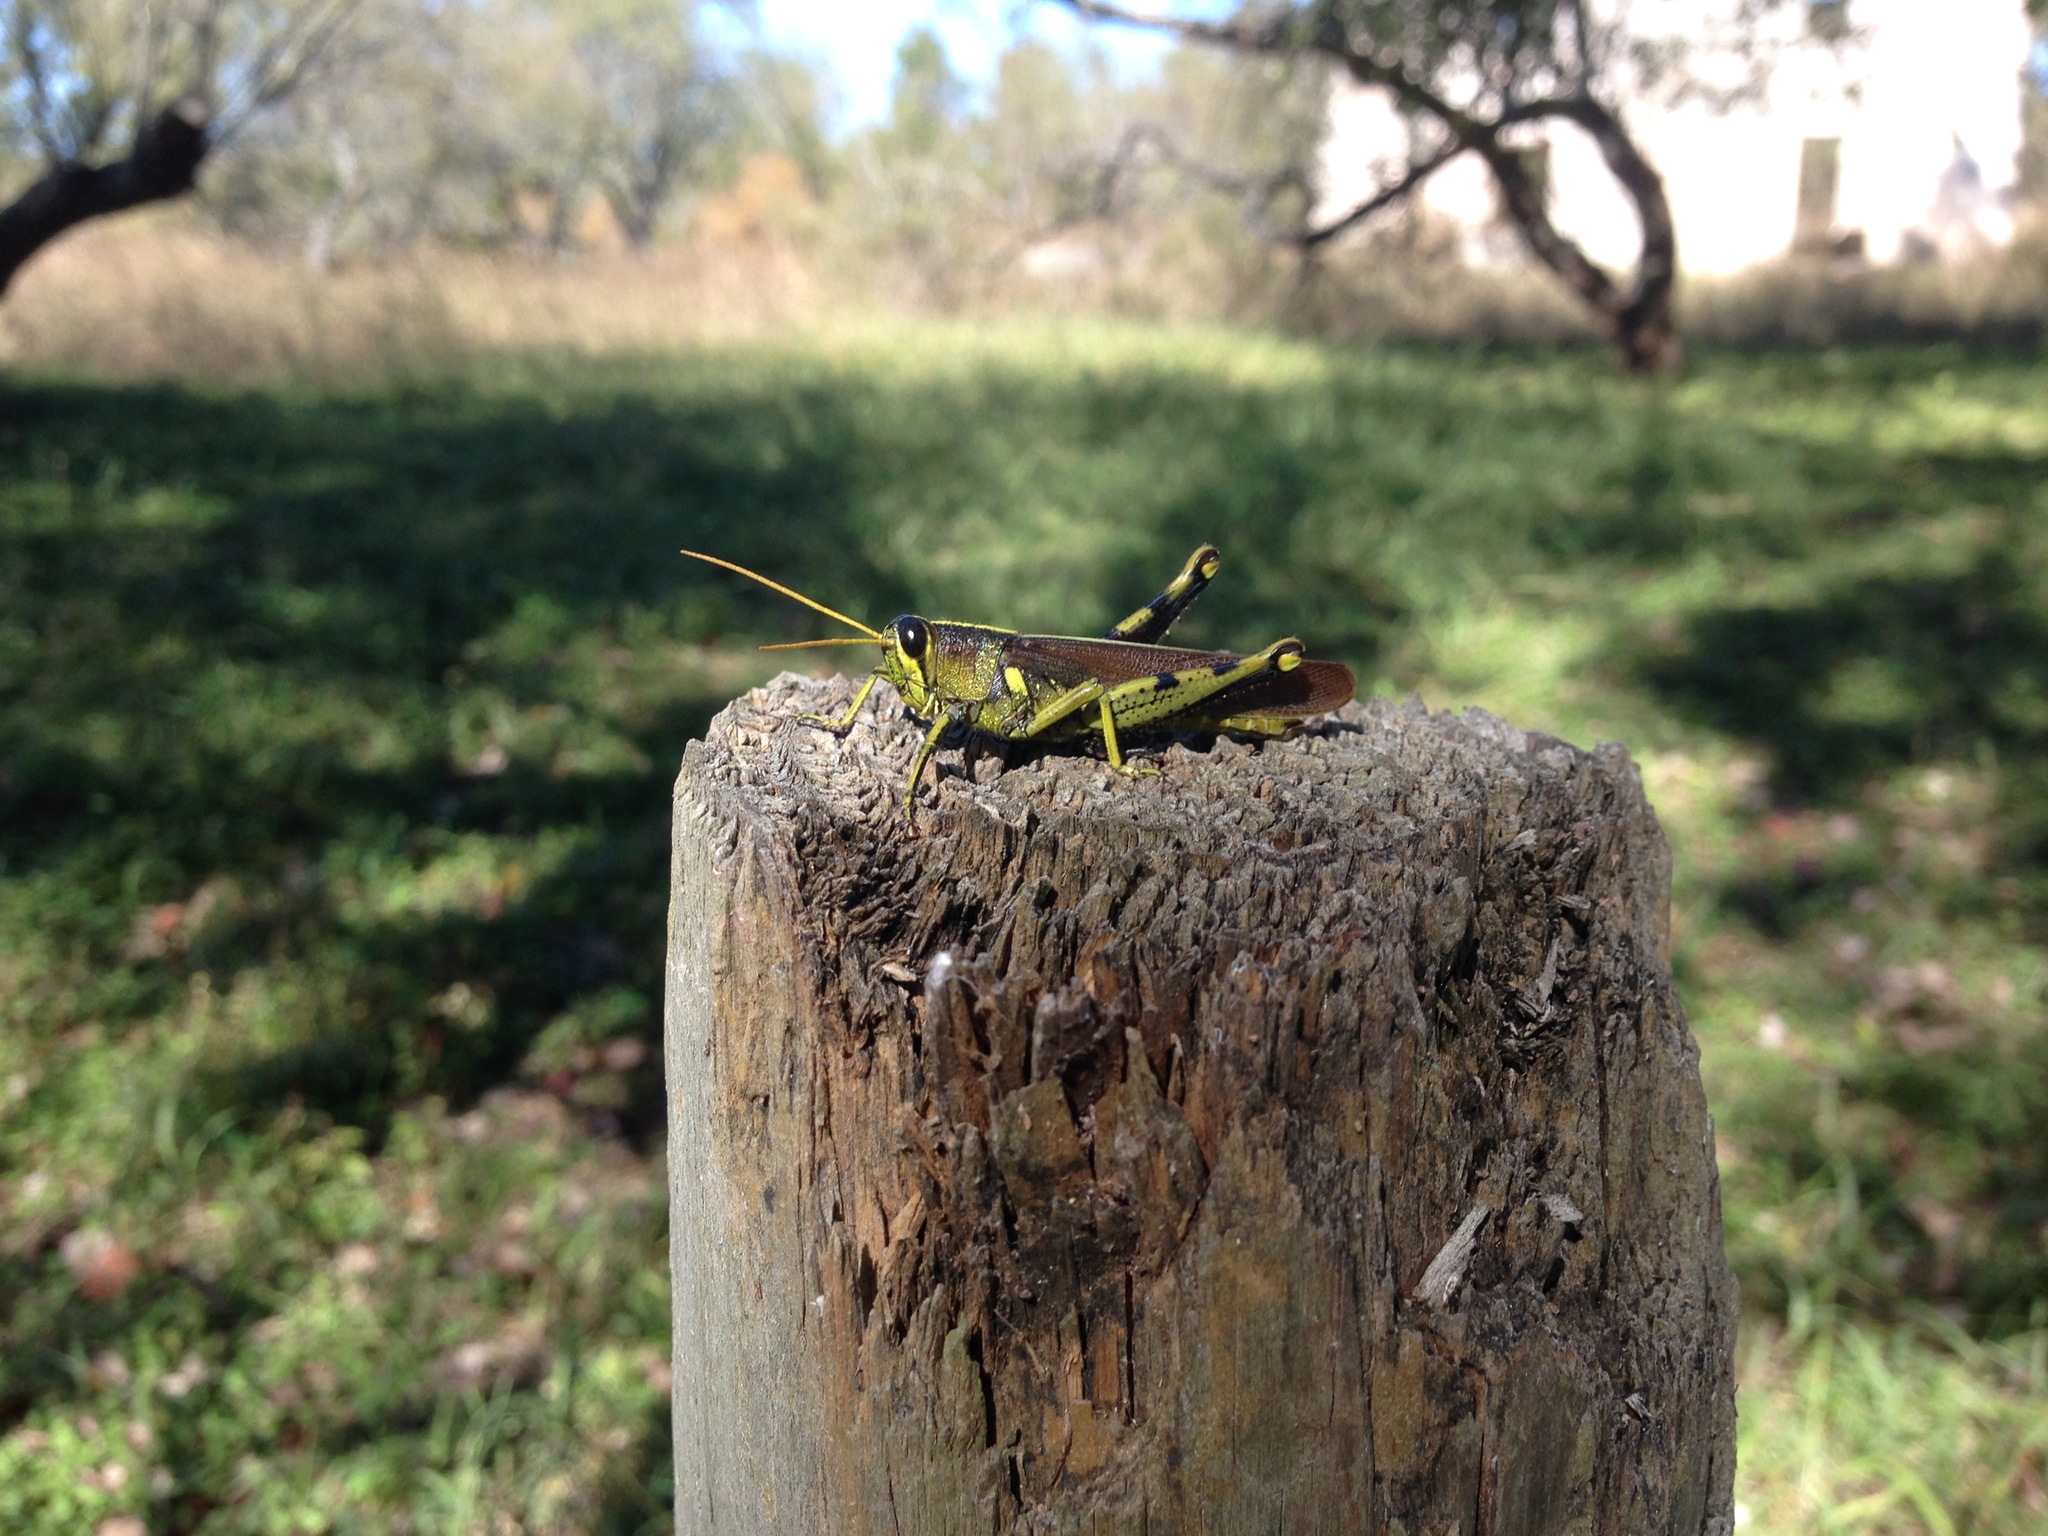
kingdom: Animalia
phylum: Arthropoda
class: Insecta
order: Orthoptera
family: Acrididae
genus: Schistocerca
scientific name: Schistocerca obscura
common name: Obscure bird grasshopper
